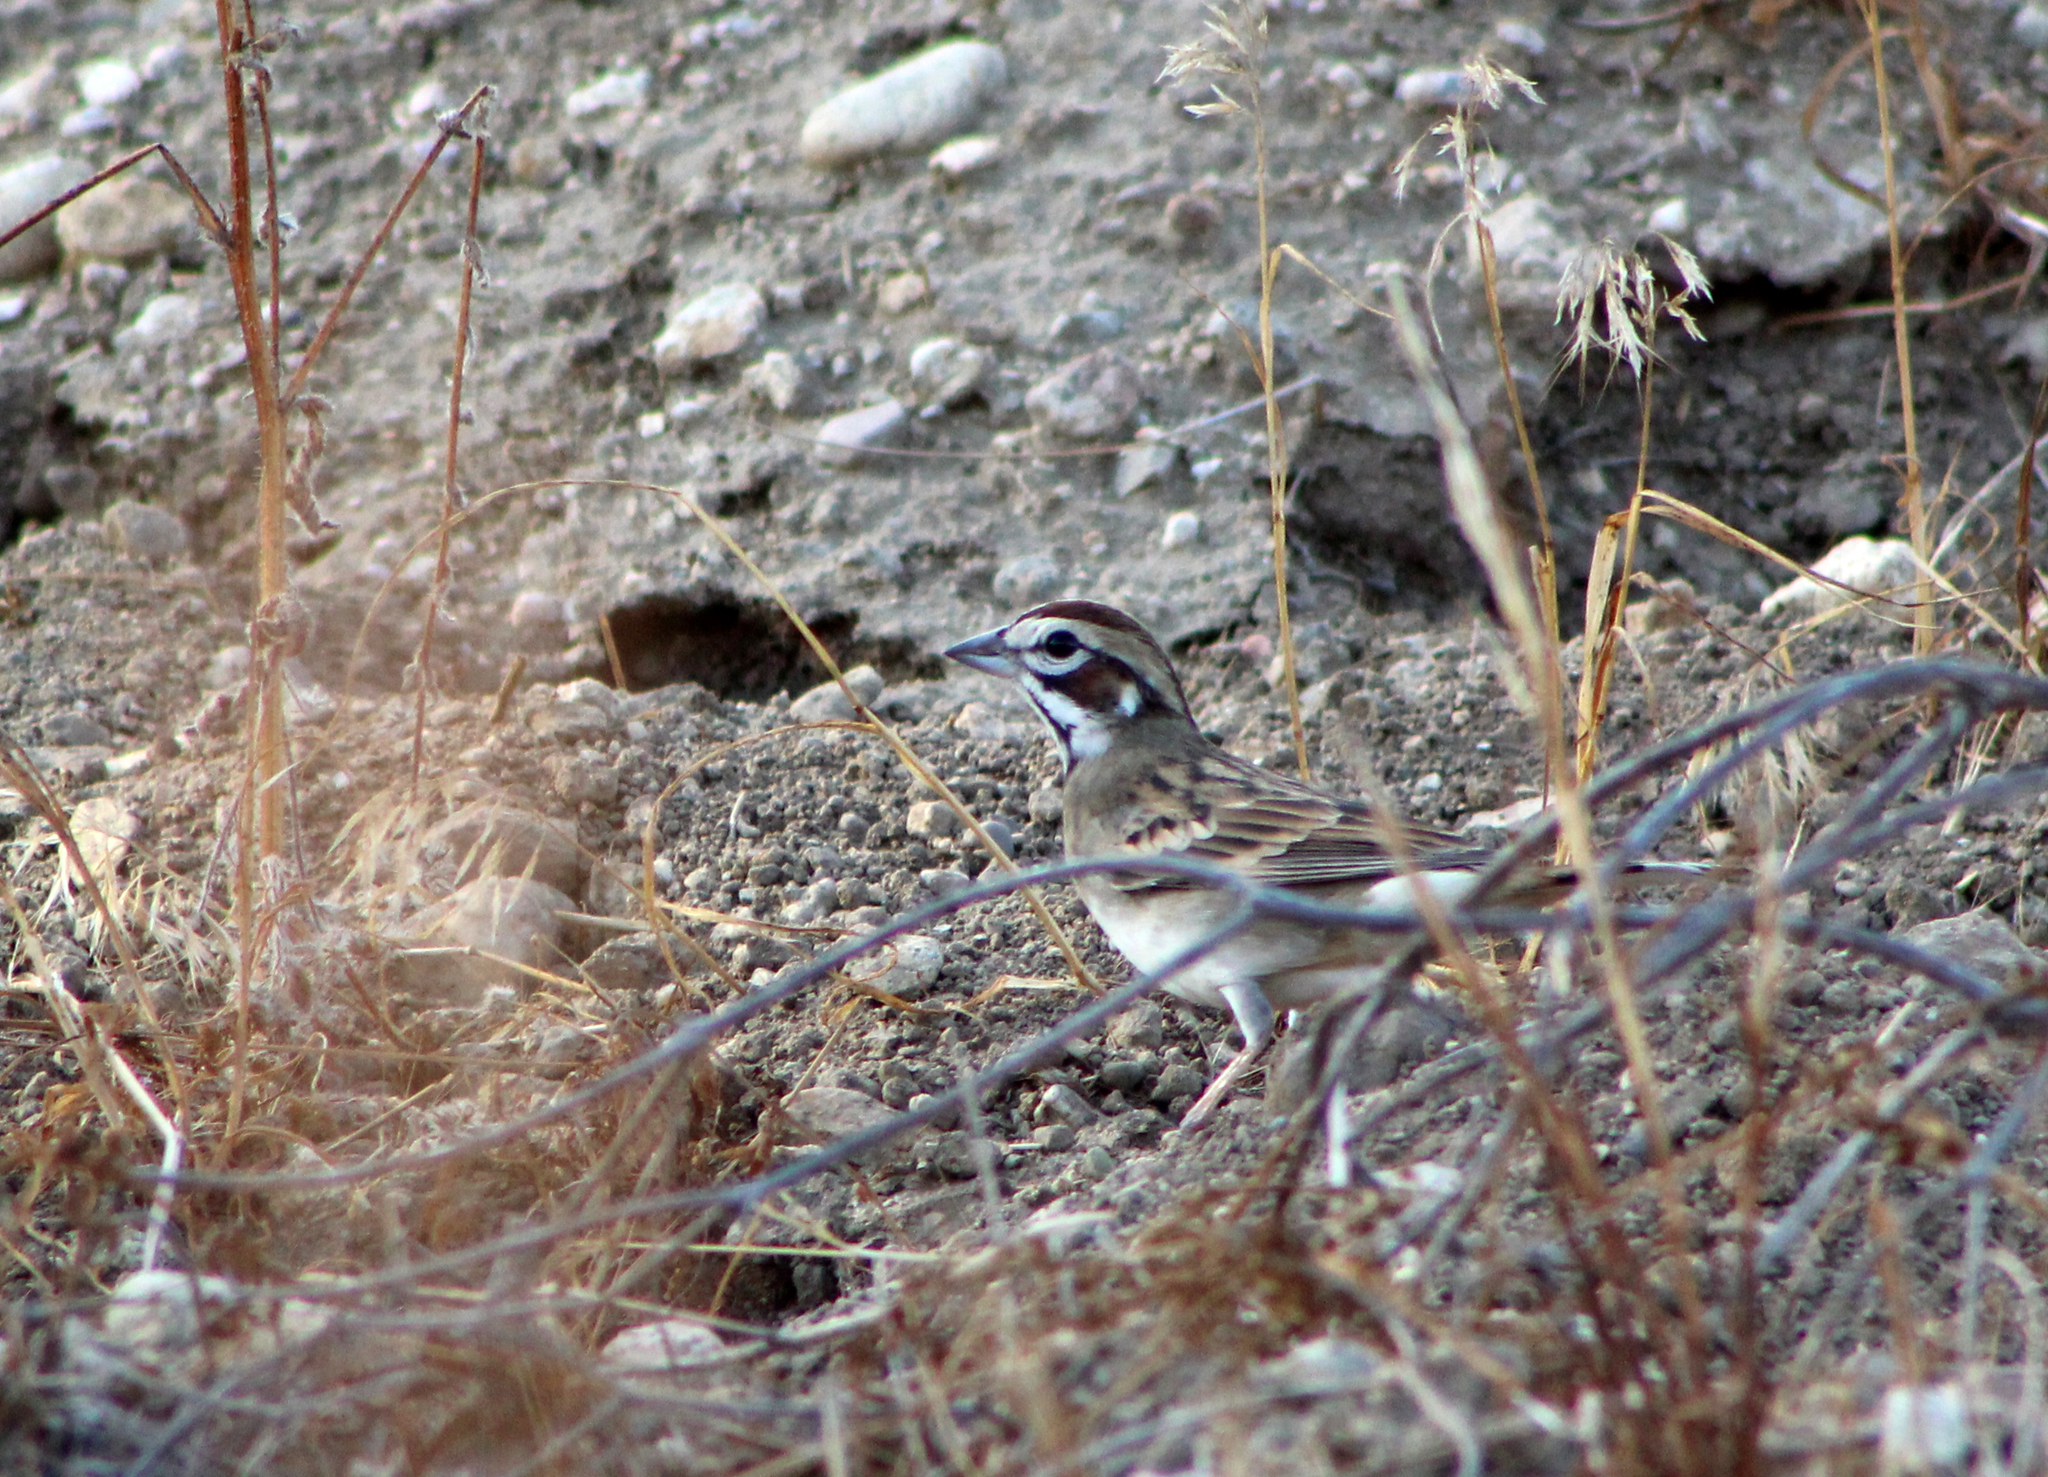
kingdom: Animalia
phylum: Chordata
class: Aves
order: Passeriformes
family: Passerellidae
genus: Chondestes
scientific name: Chondestes grammacus
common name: Lark sparrow
